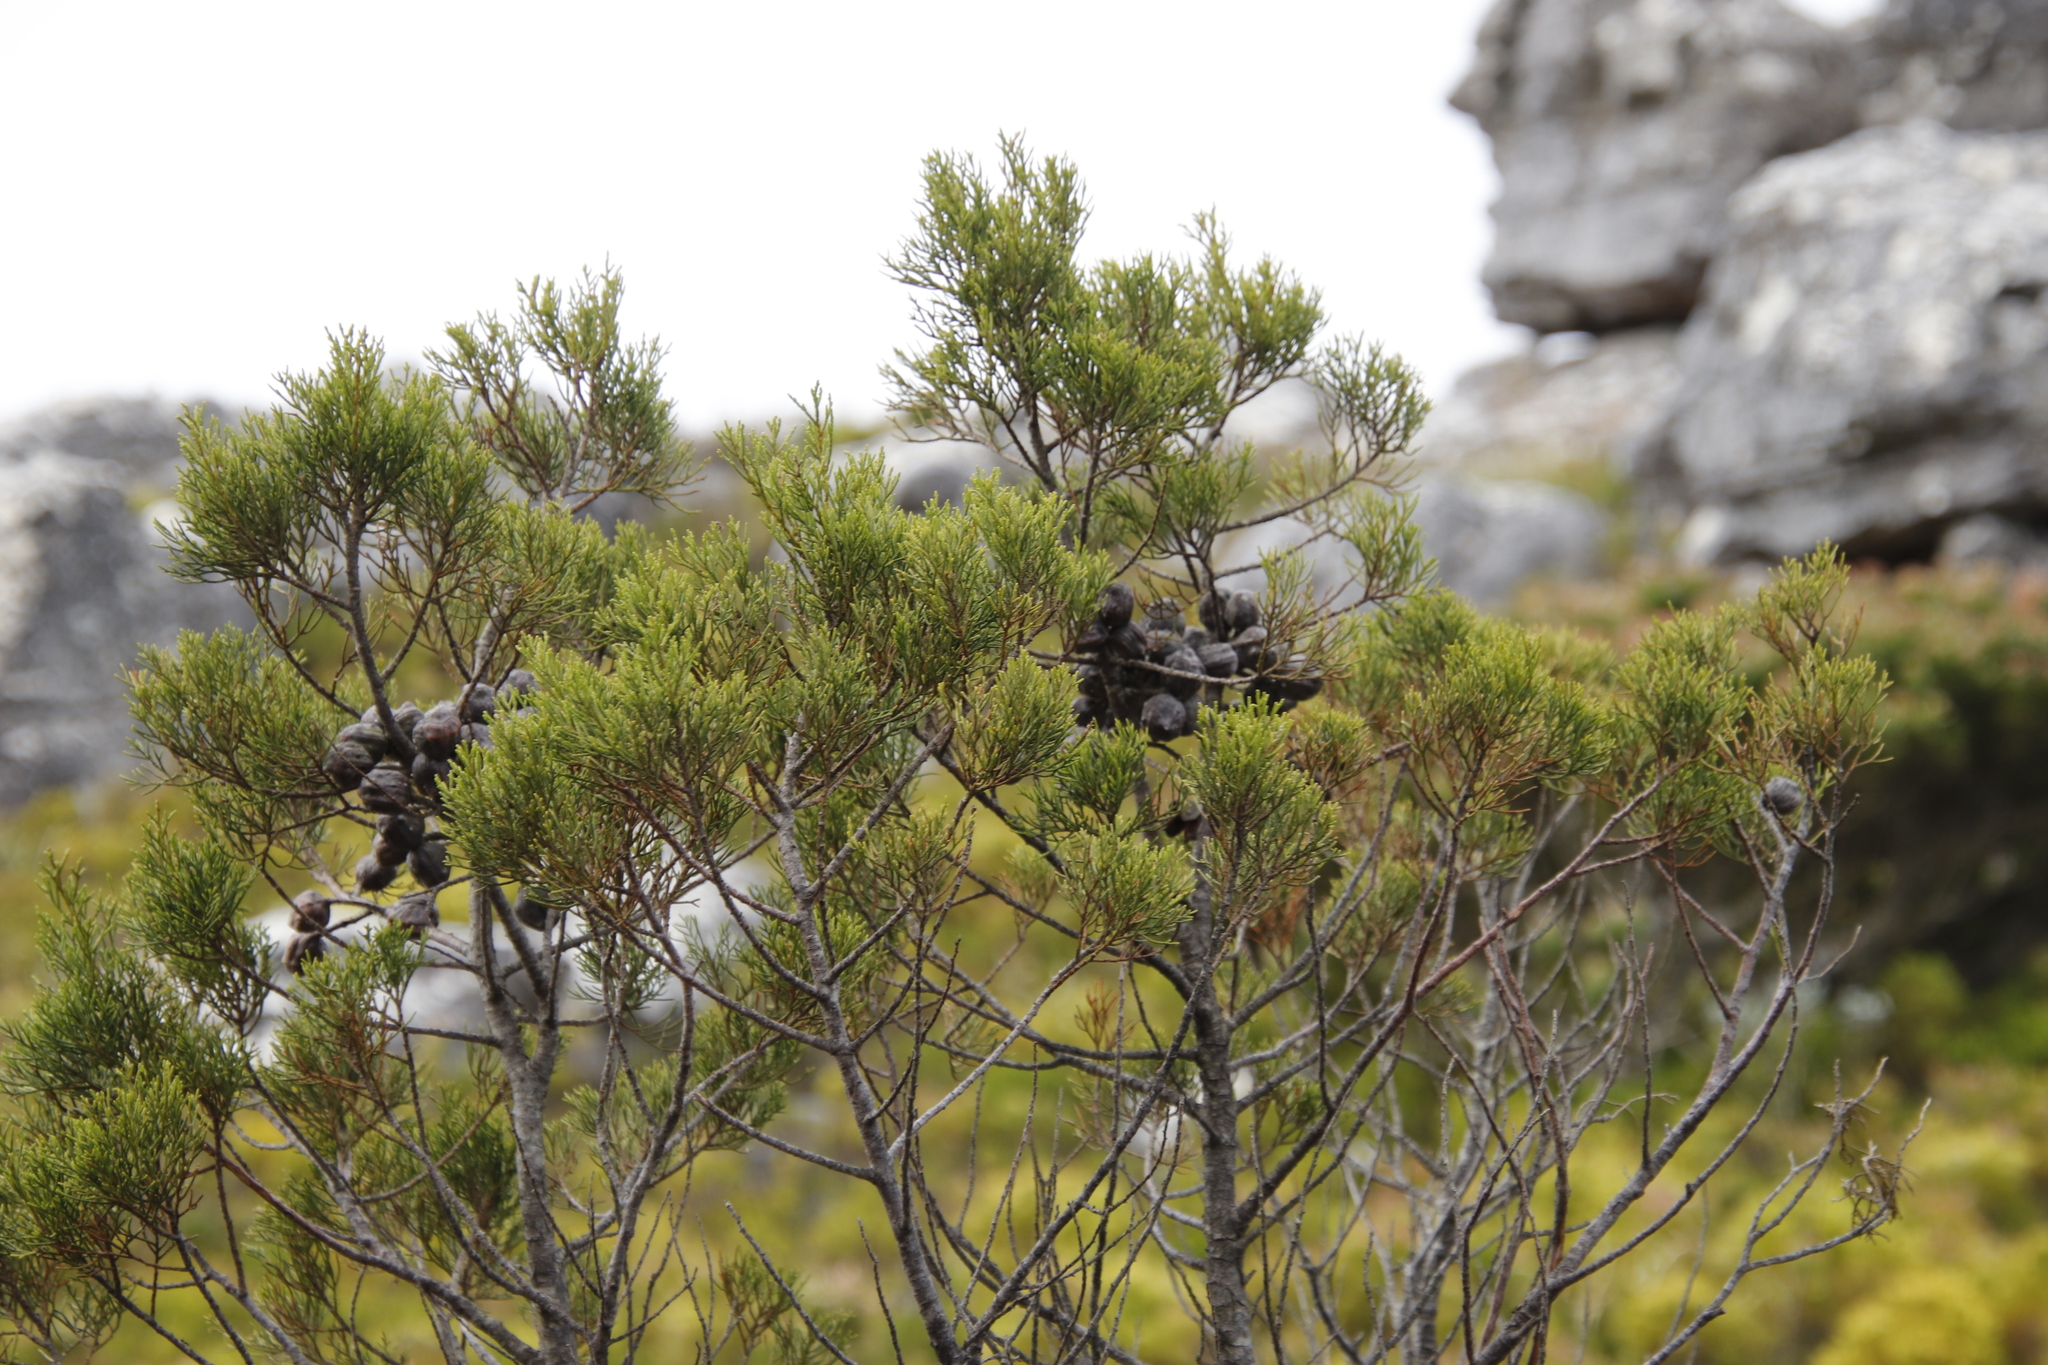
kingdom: Plantae
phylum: Tracheophyta
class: Pinopsida
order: Pinales
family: Cupressaceae
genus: Widdringtonia
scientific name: Widdringtonia nodiflora
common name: Cape cypress
